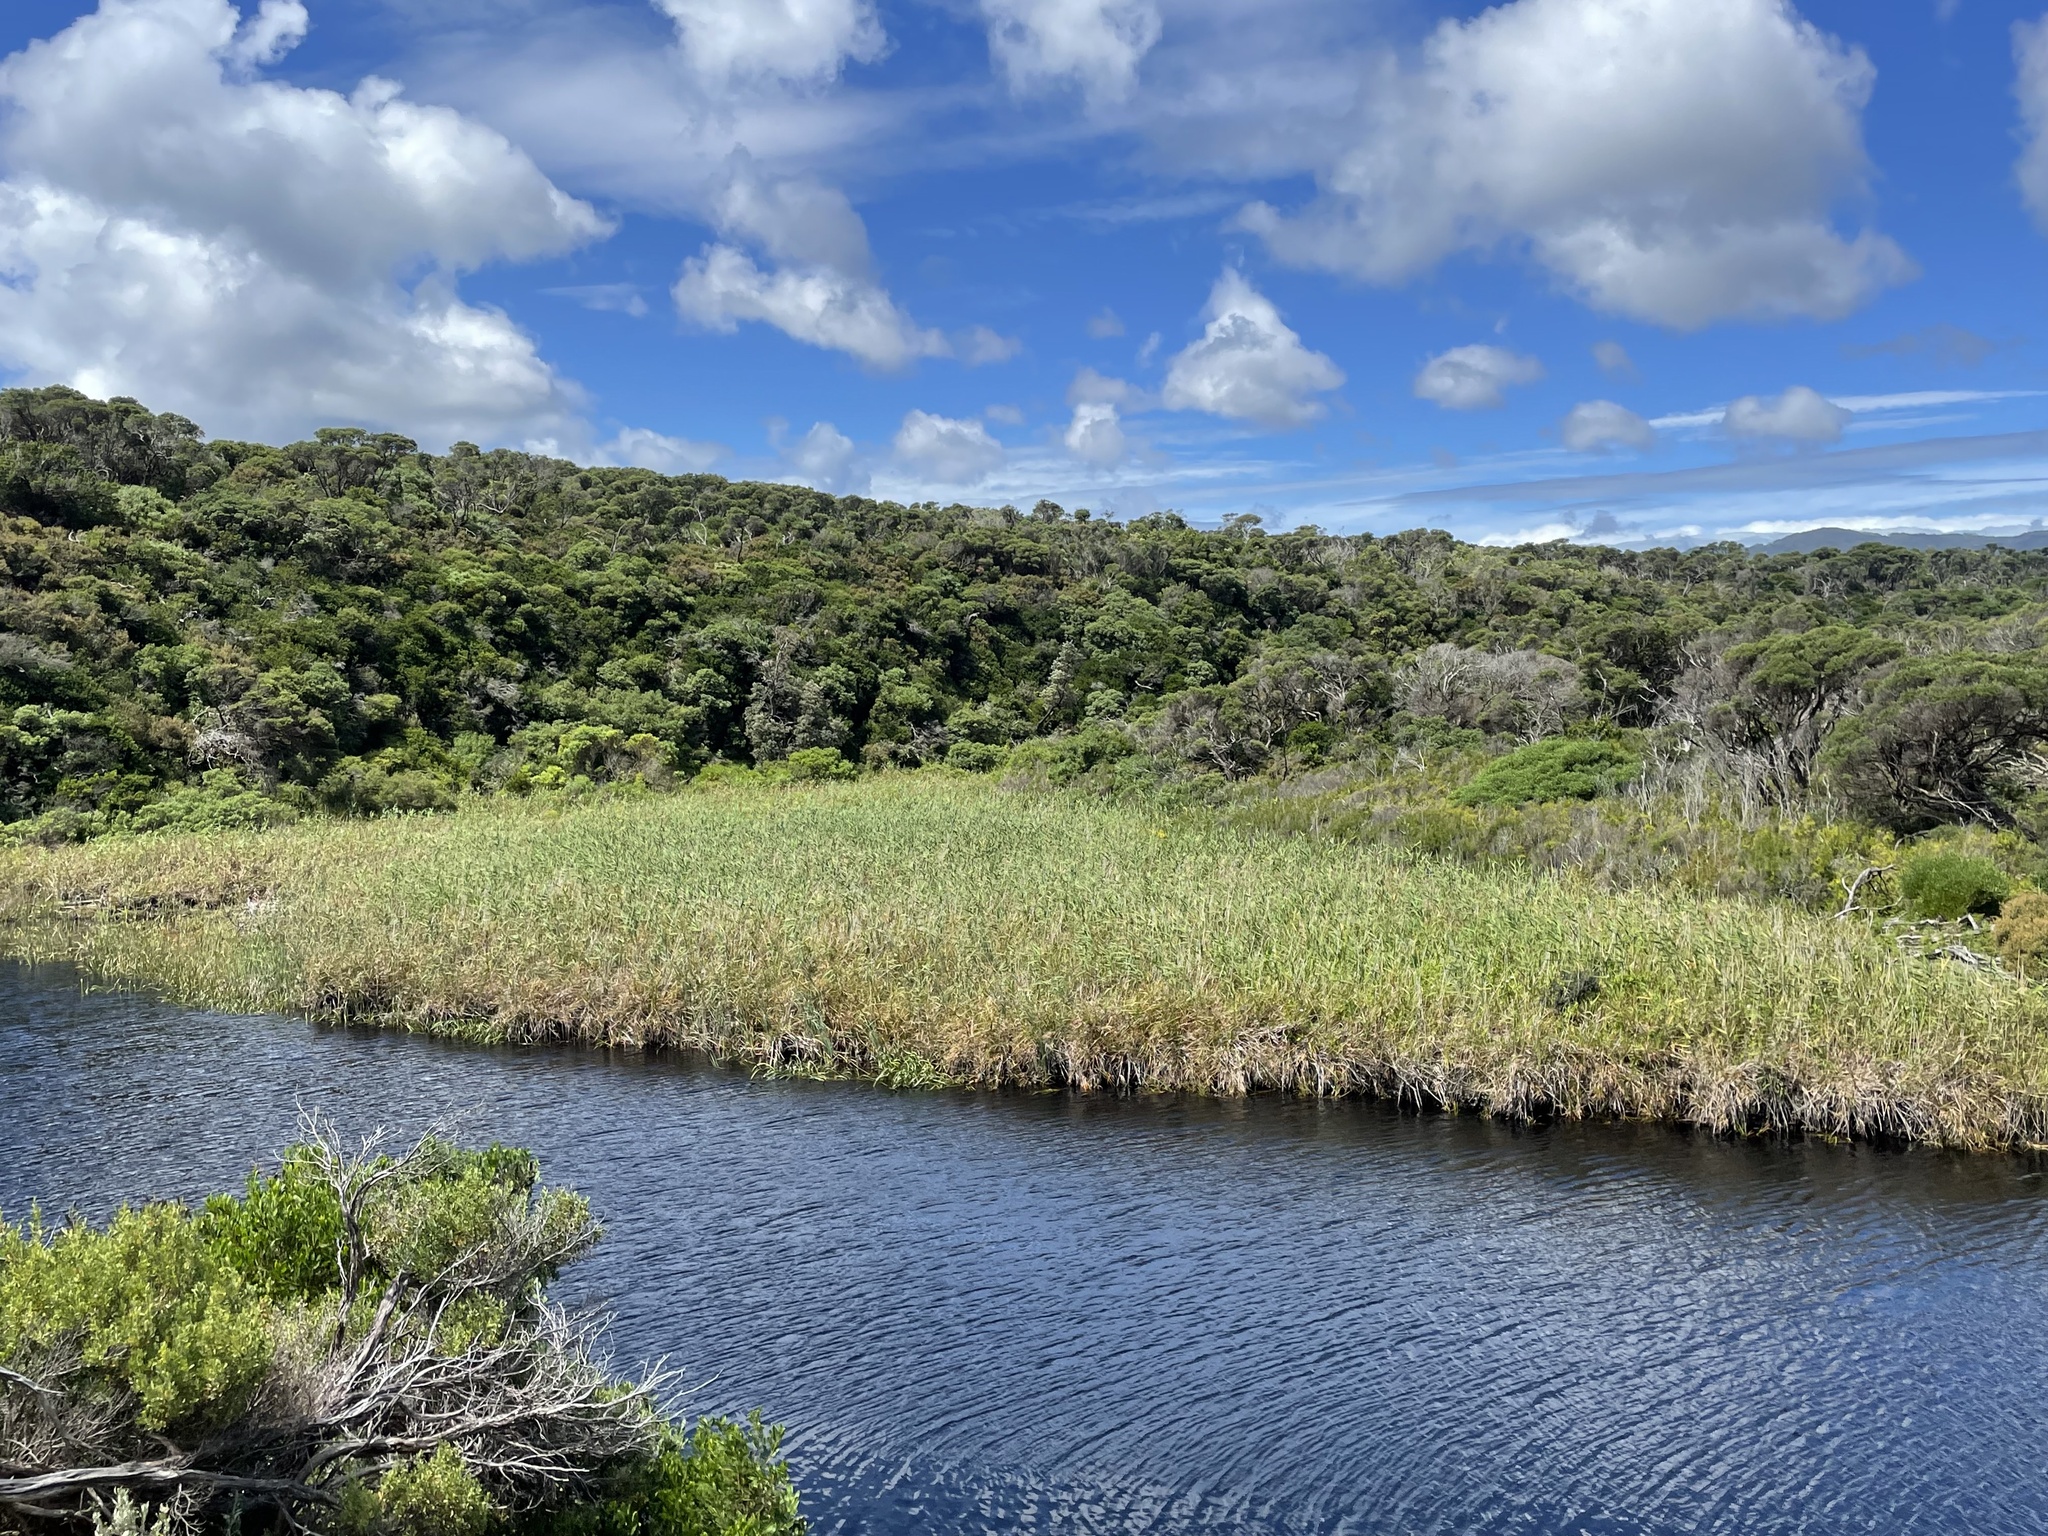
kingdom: Plantae
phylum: Tracheophyta
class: Liliopsida
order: Poales
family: Poaceae
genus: Phragmites
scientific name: Phragmites australis
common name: Common reed
